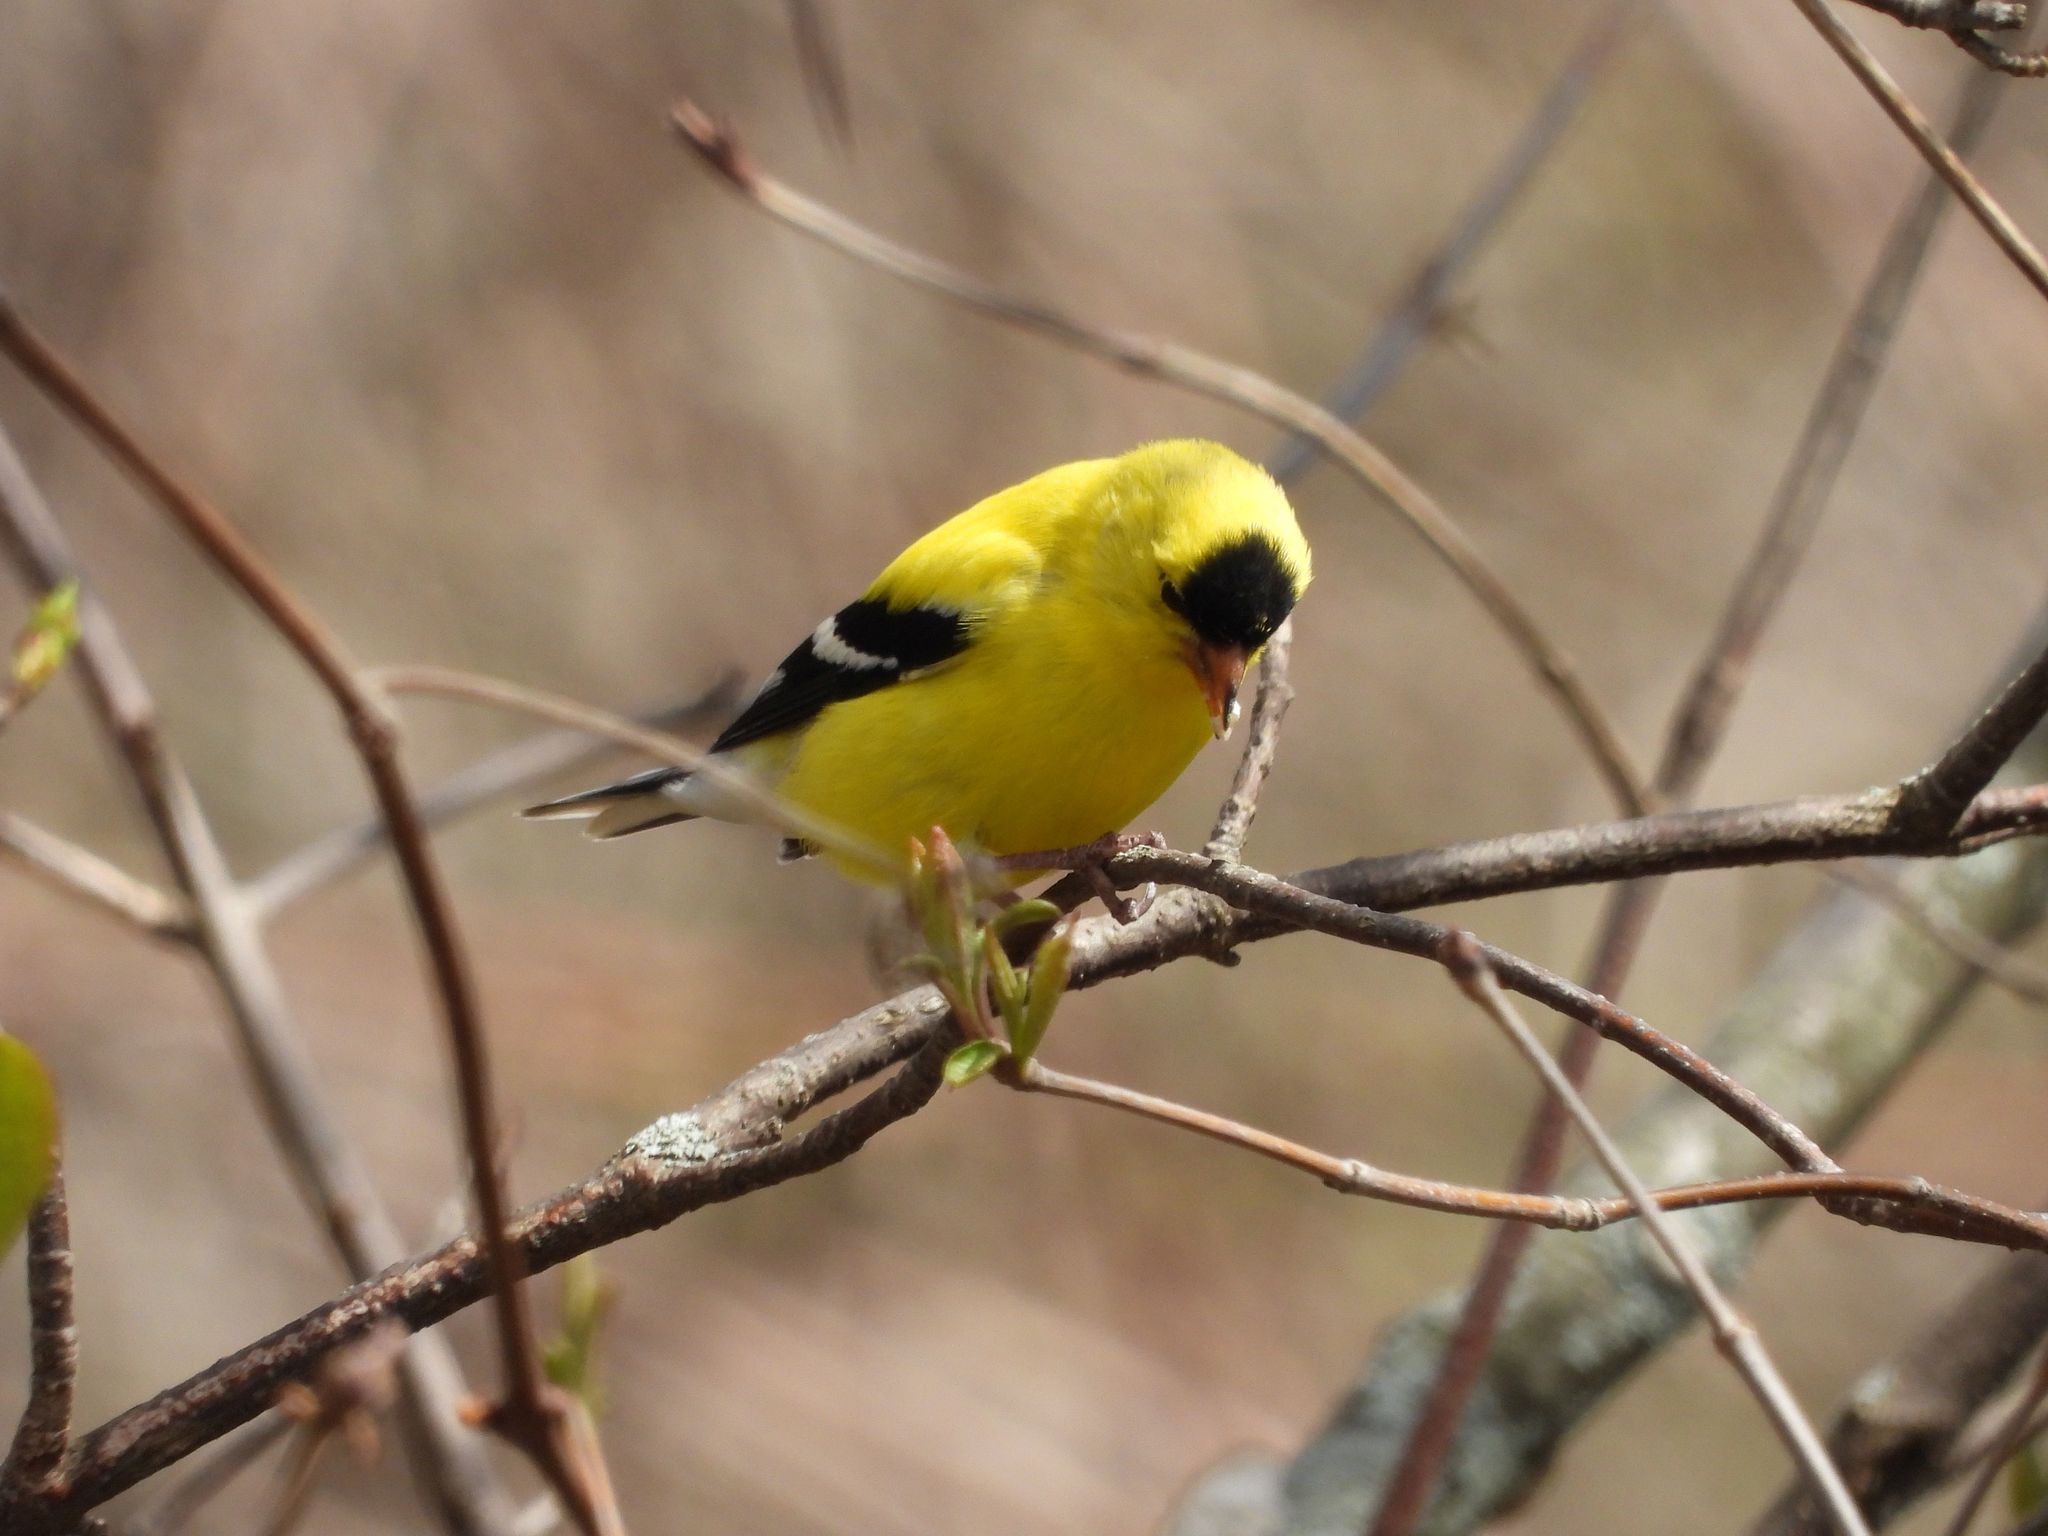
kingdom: Animalia
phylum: Chordata
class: Aves
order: Passeriformes
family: Fringillidae
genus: Spinus
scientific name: Spinus tristis
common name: American goldfinch
